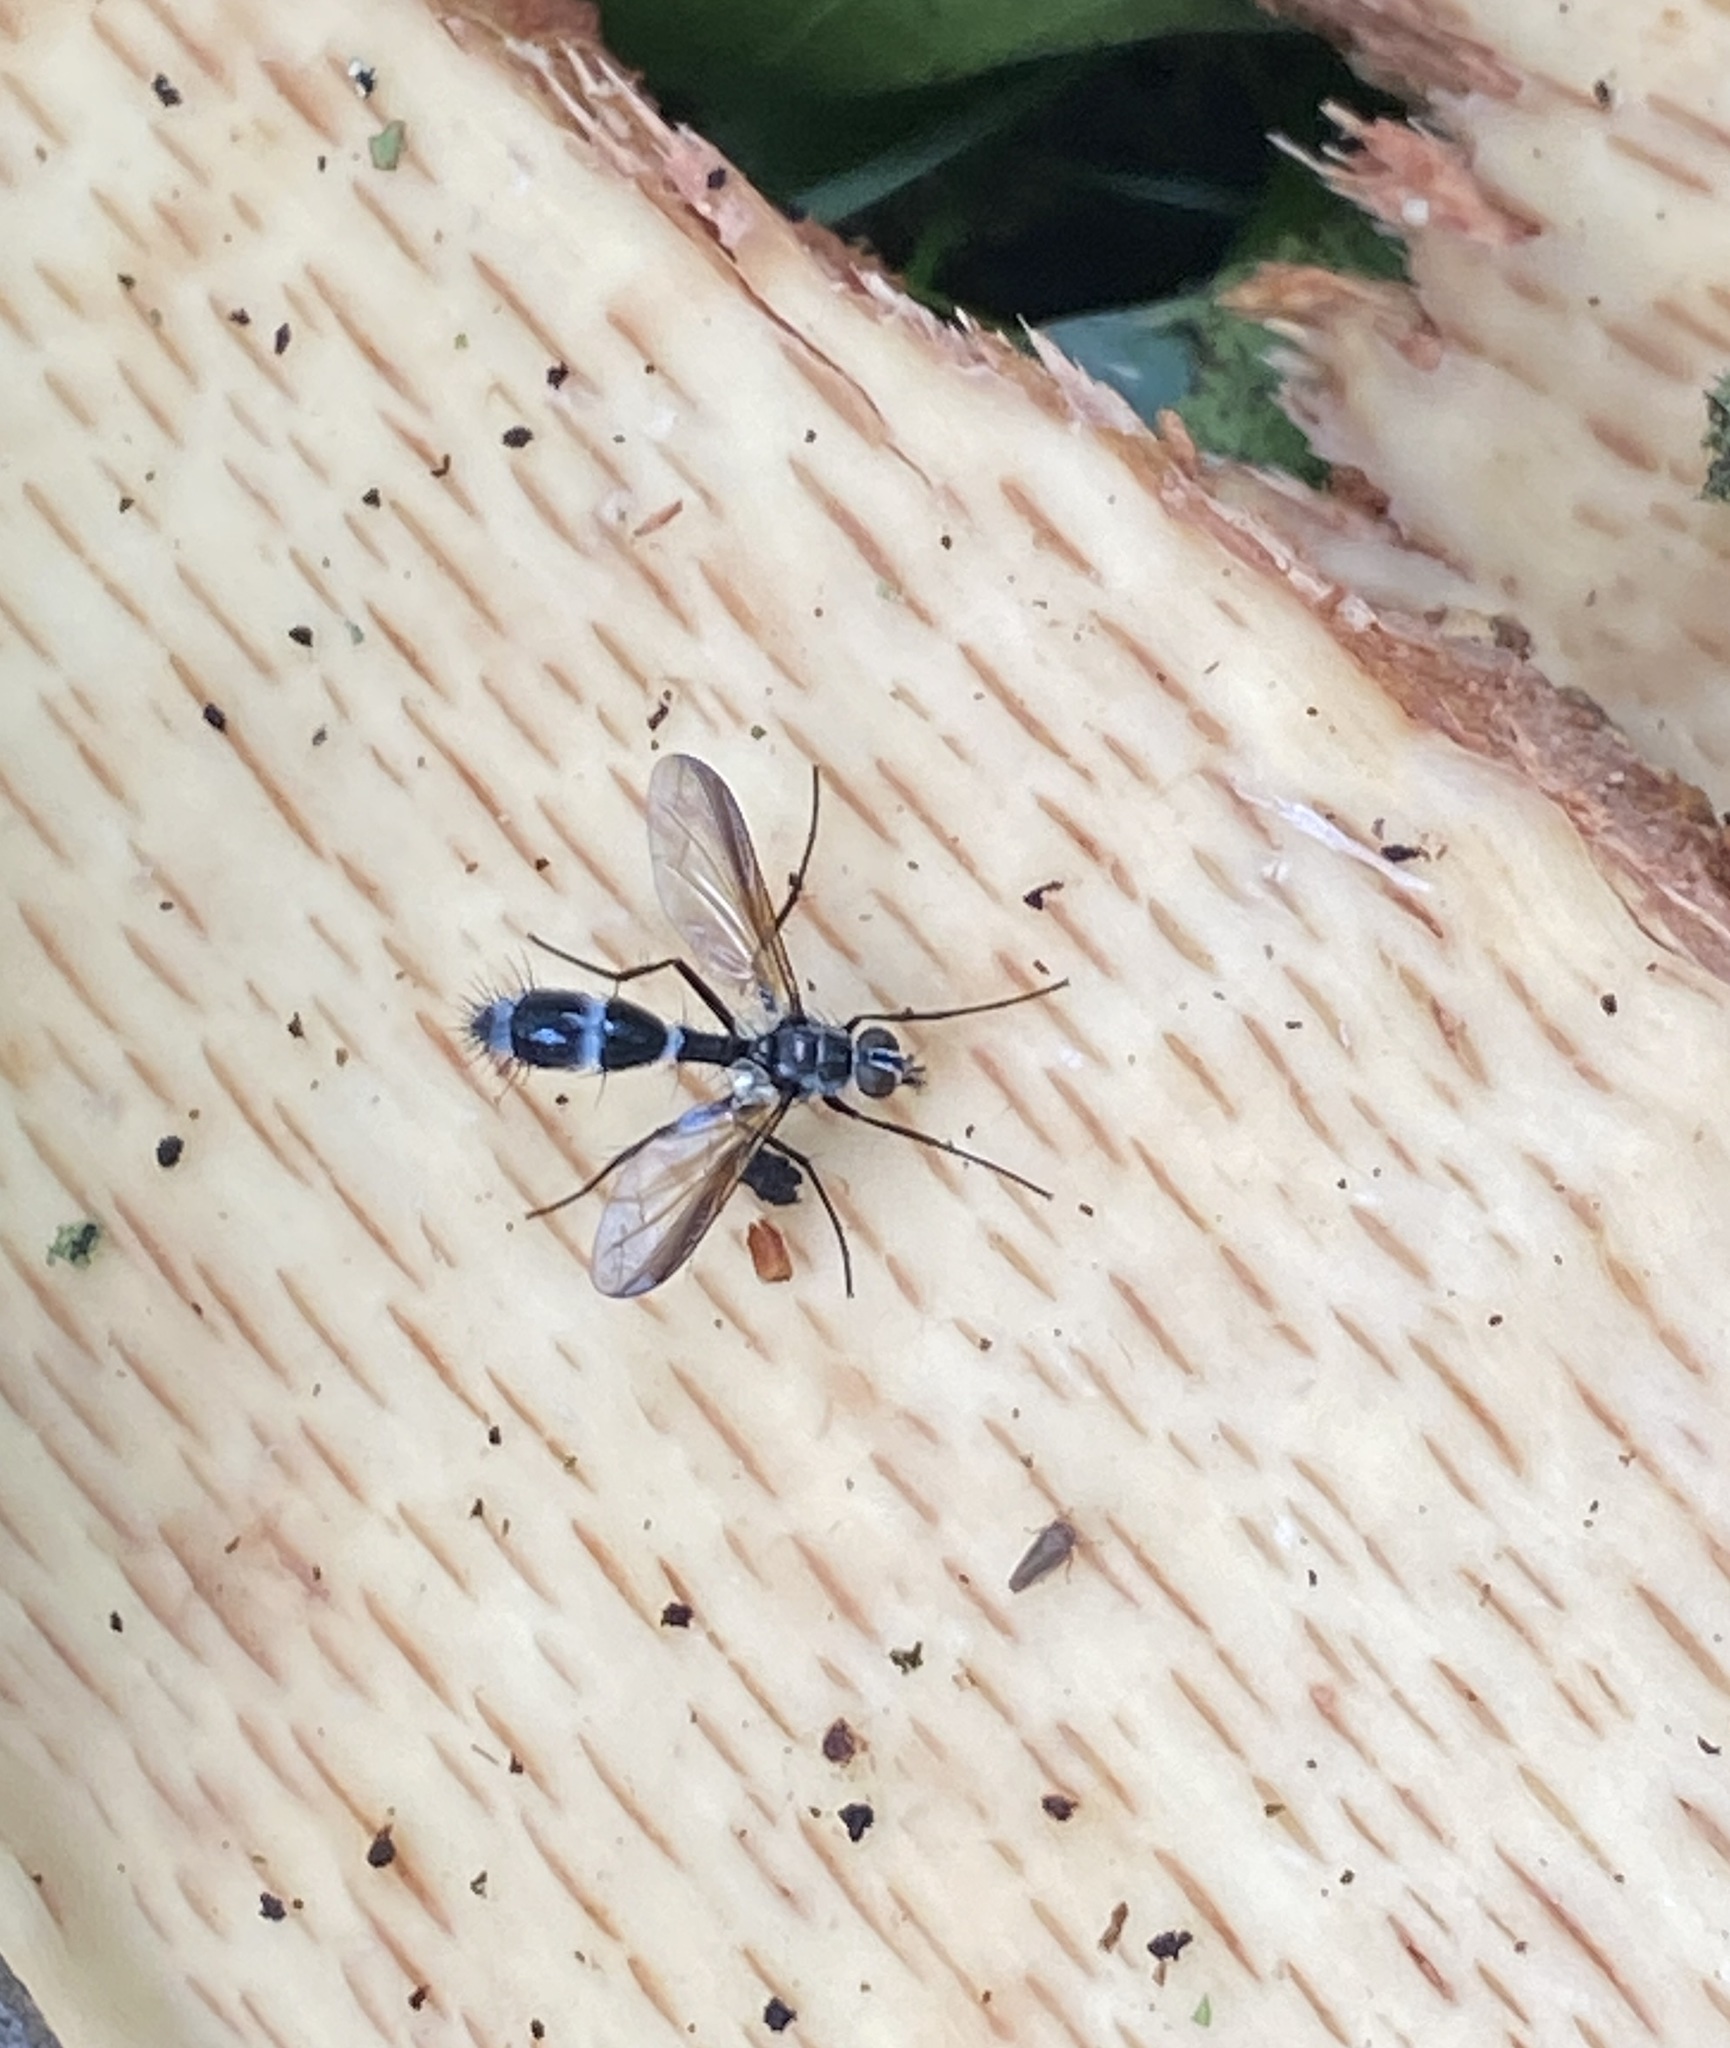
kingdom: Animalia
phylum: Arthropoda
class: Insecta
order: Diptera
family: Tachinidae
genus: Cordyligaster
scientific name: Cordyligaster septentrionalis
